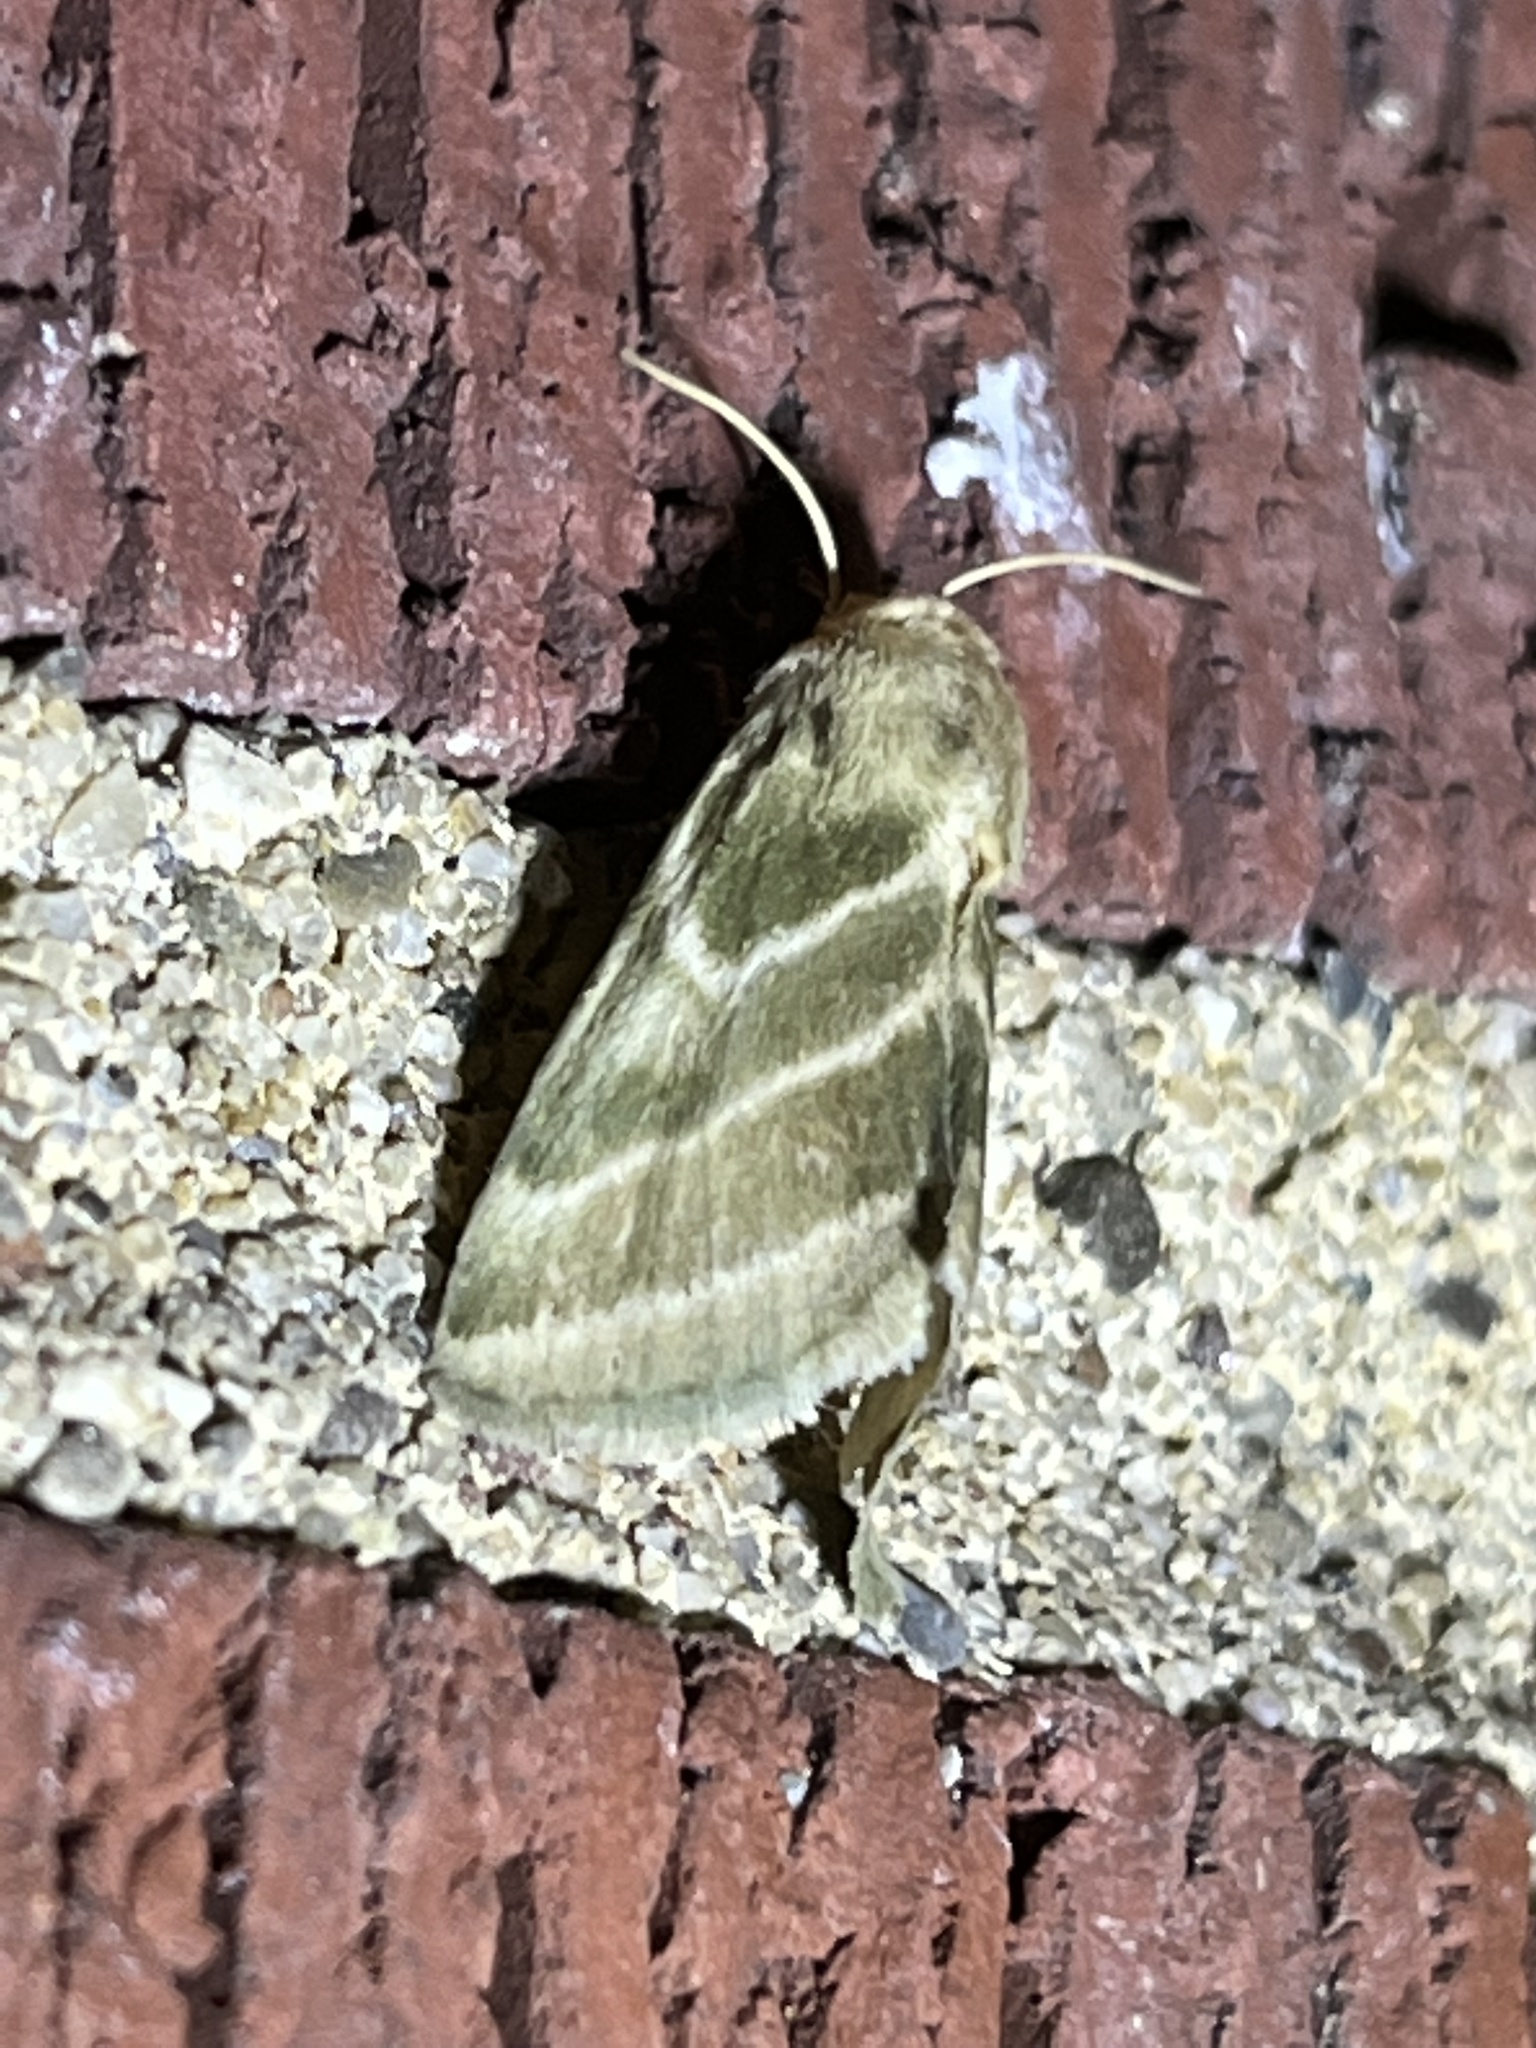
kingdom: Animalia
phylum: Arthropoda
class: Insecta
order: Lepidoptera
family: Noctuidae
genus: Schinia
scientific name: Schinia trifascia
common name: Three-lined flower moth
